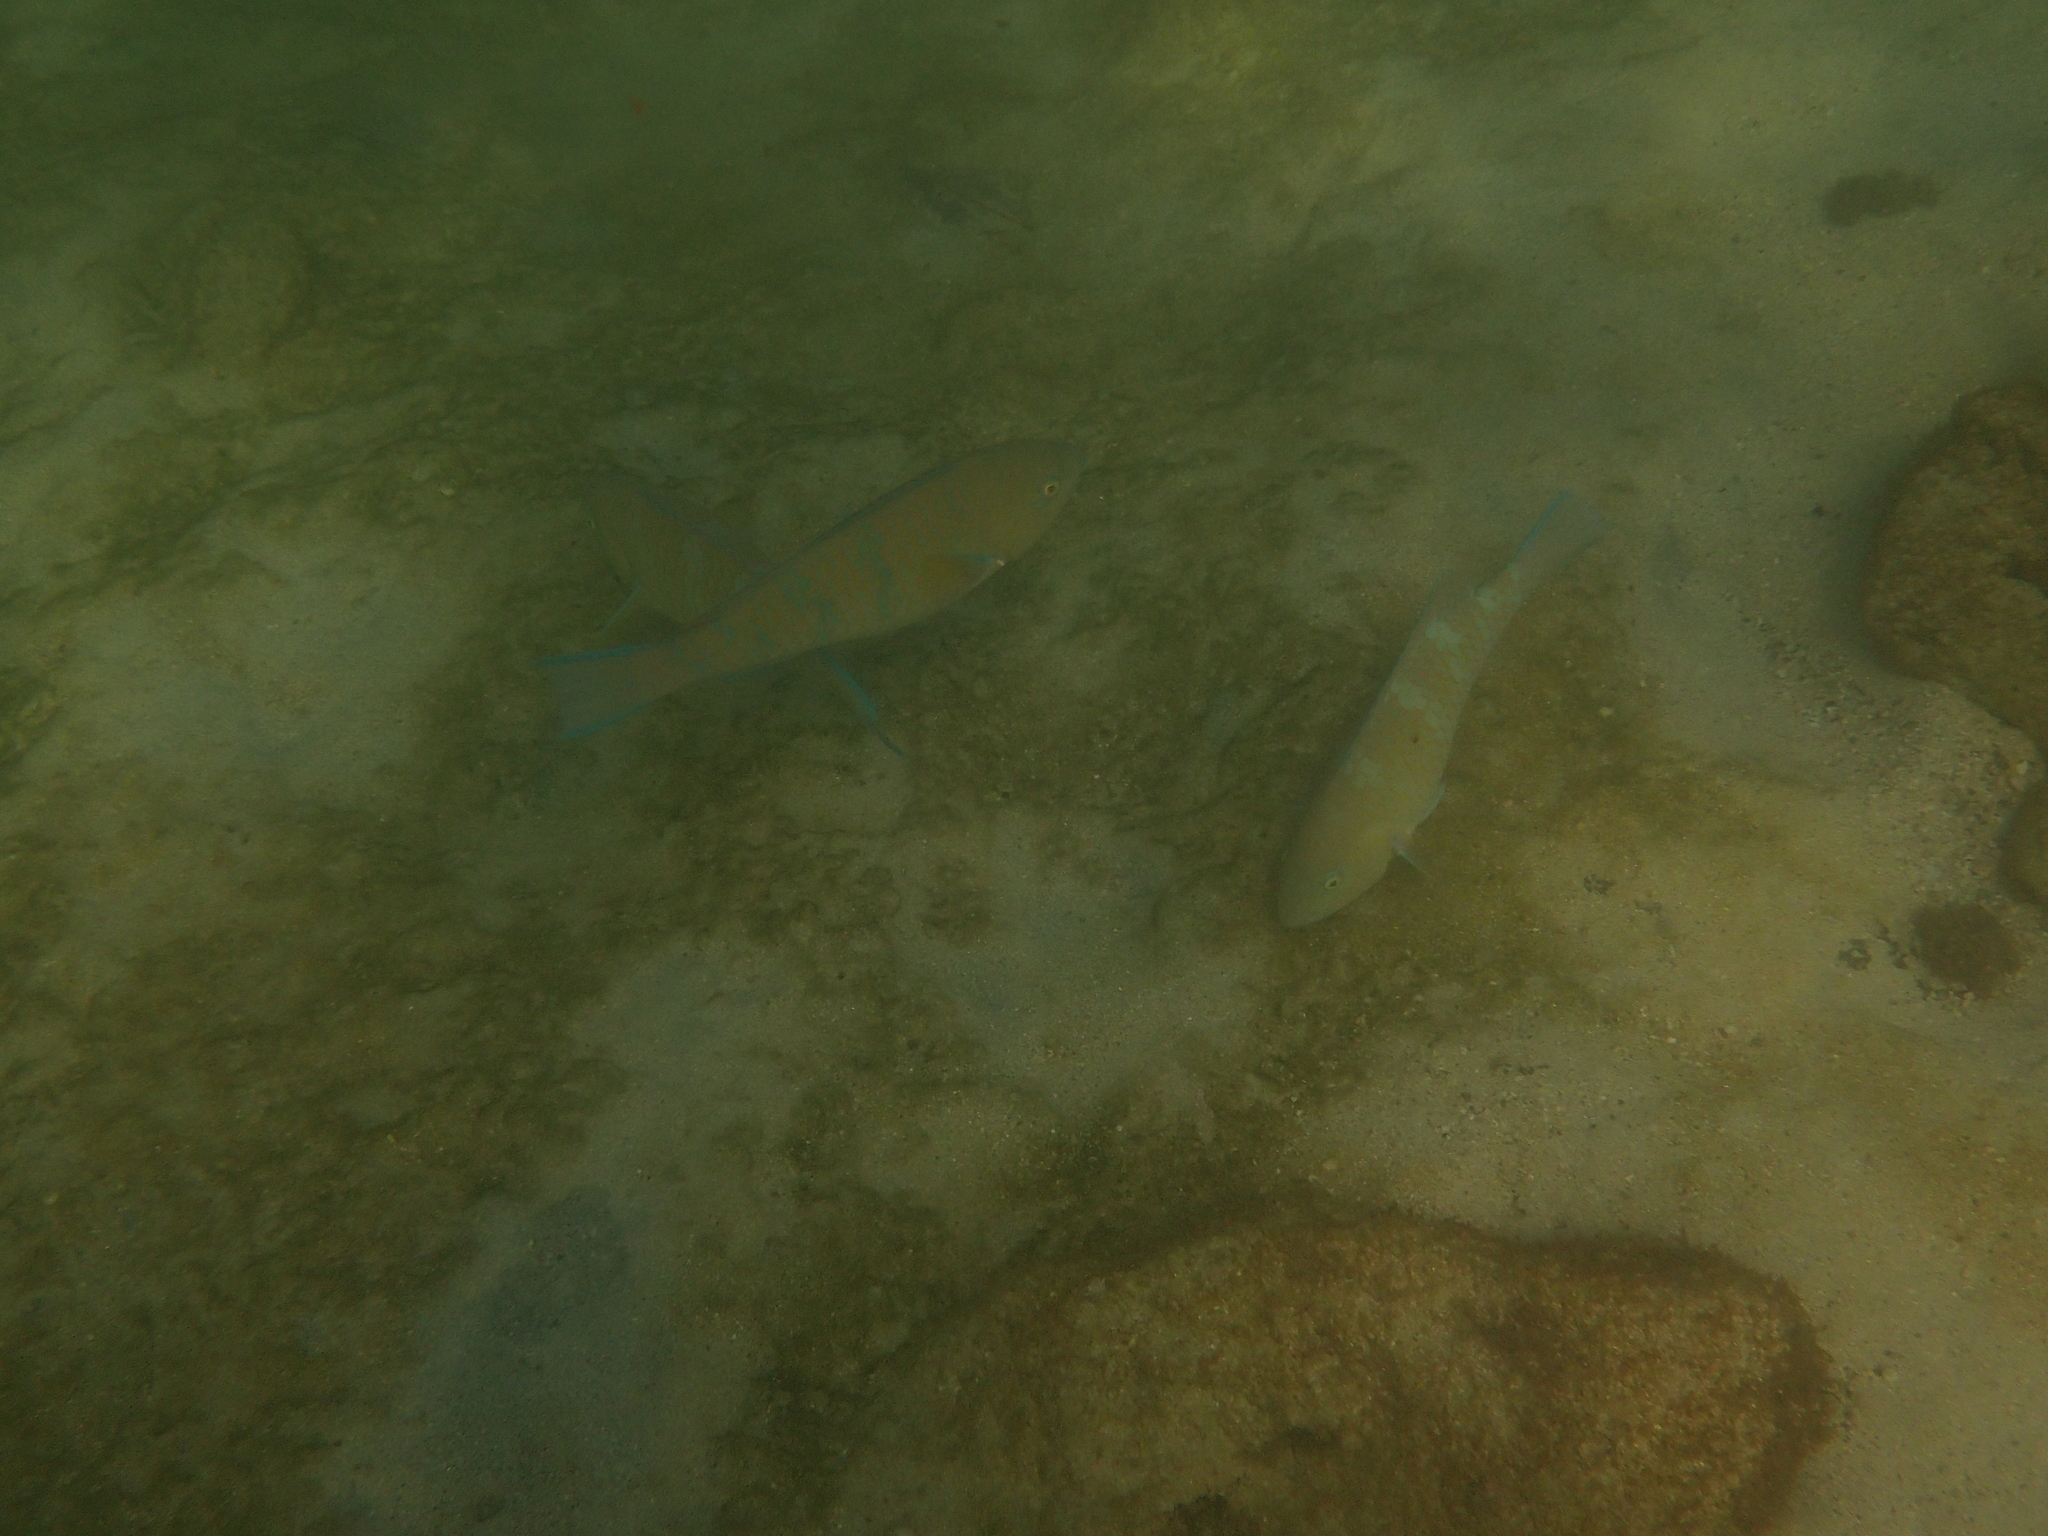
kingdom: Animalia
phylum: Chordata
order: Perciformes
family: Scaridae
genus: Scarus
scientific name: Scarus ghobban
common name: Blue-barred parrotfish
